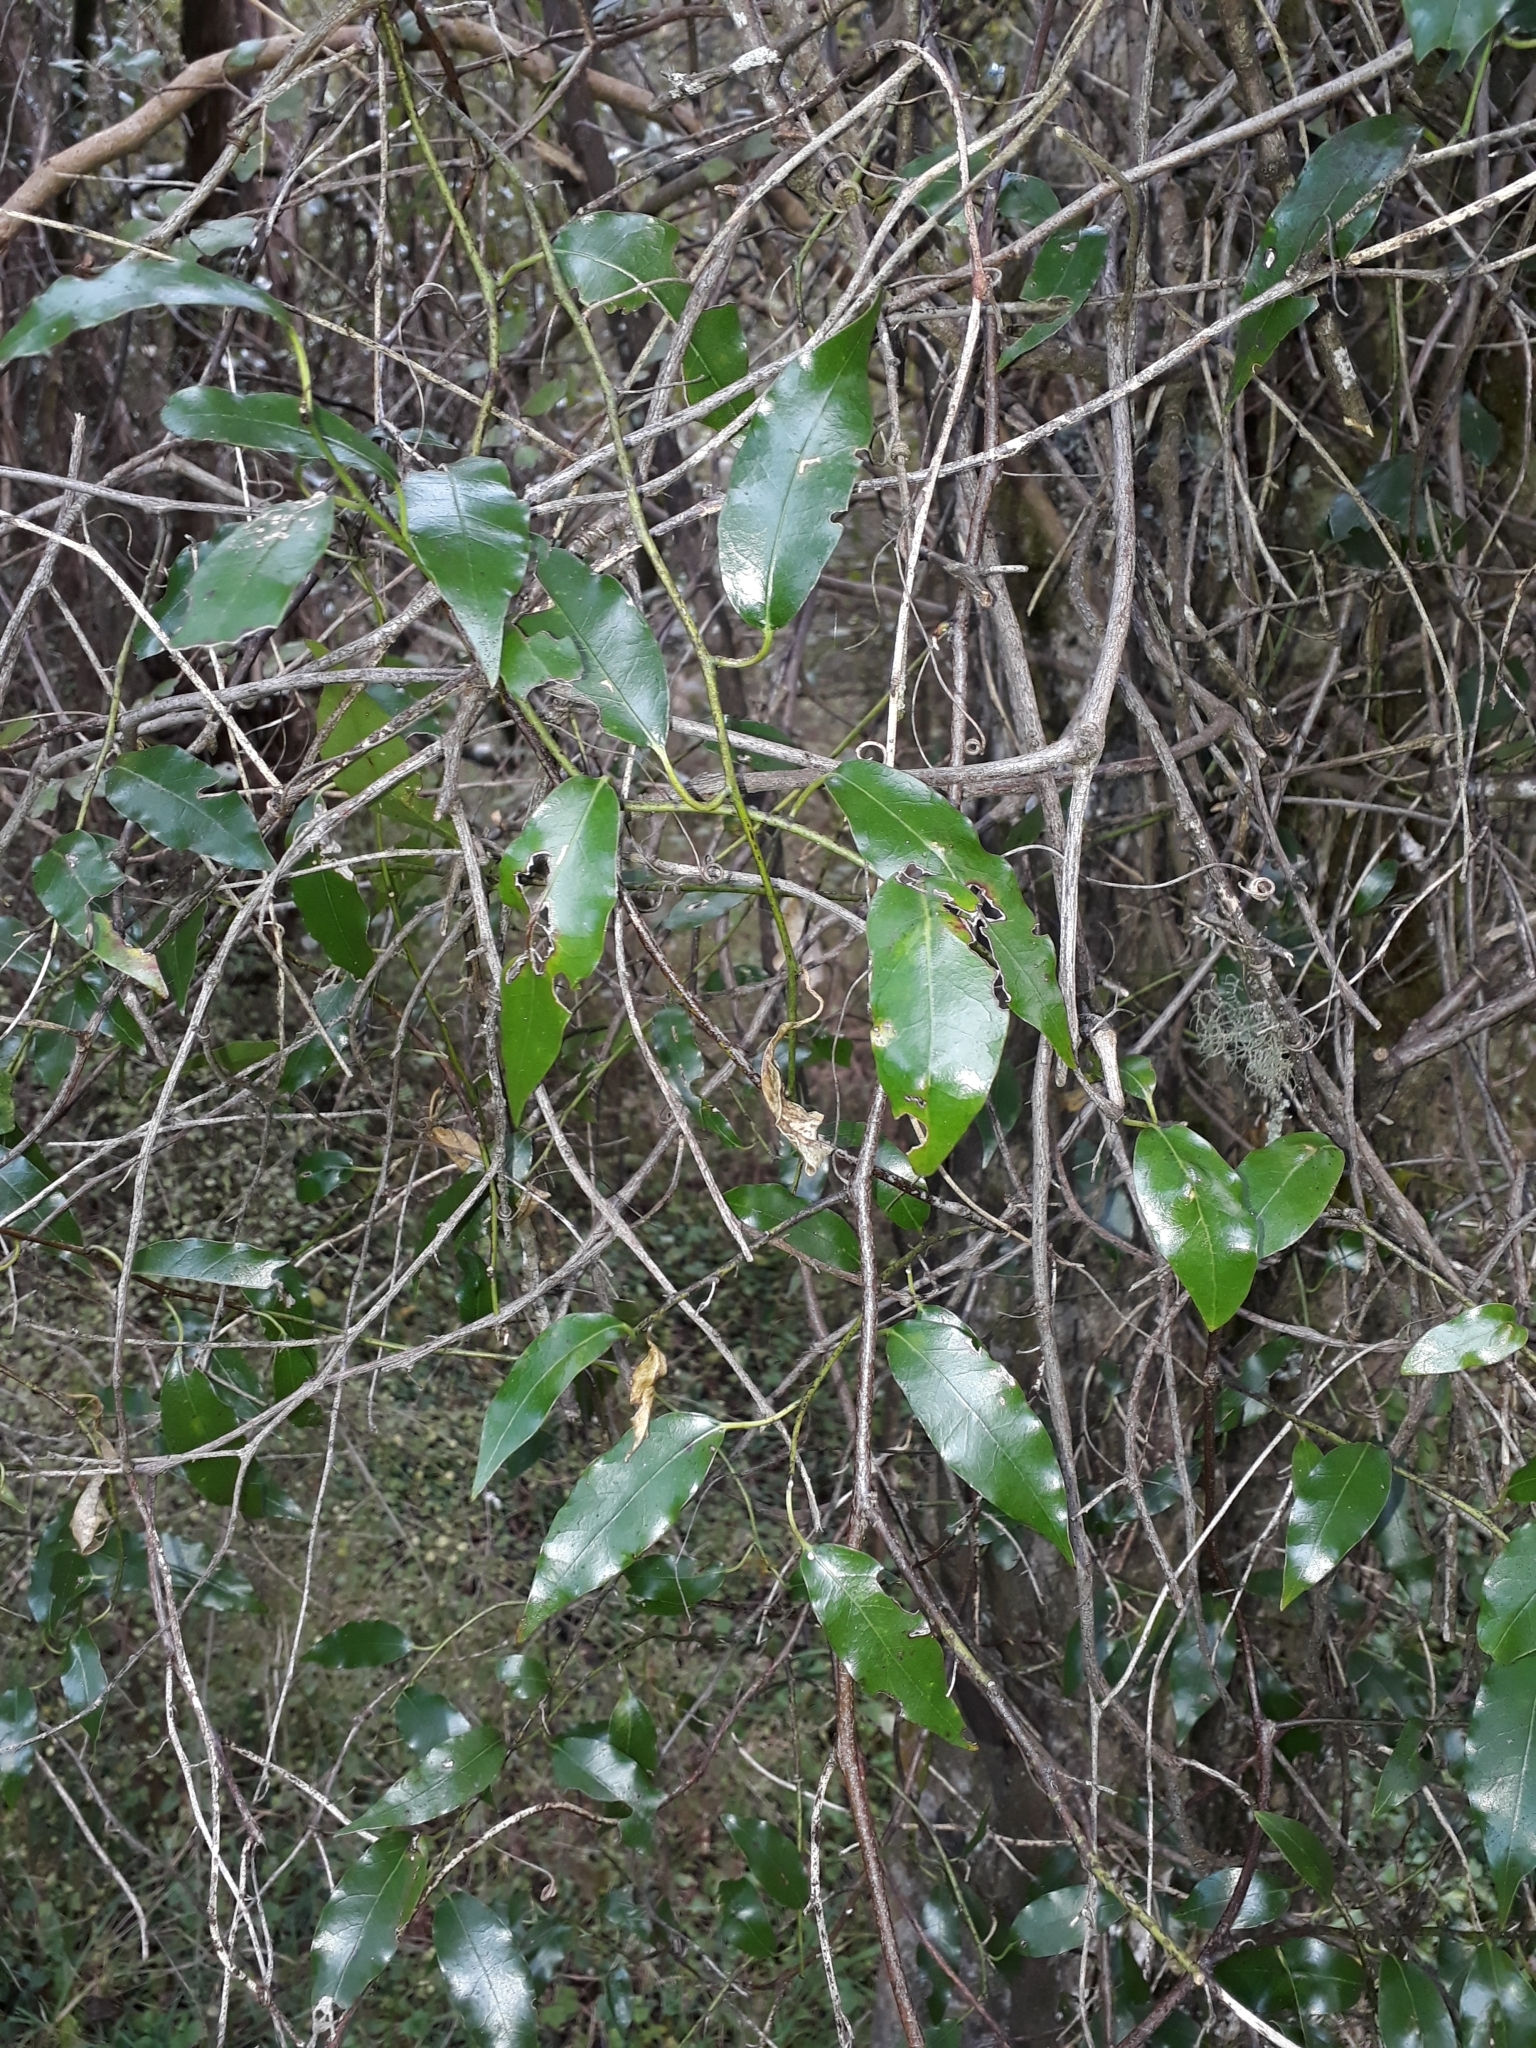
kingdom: Plantae
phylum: Tracheophyta
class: Magnoliopsida
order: Malpighiales
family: Passifloraceae
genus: Passiflora
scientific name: Passiflora tetrandra
